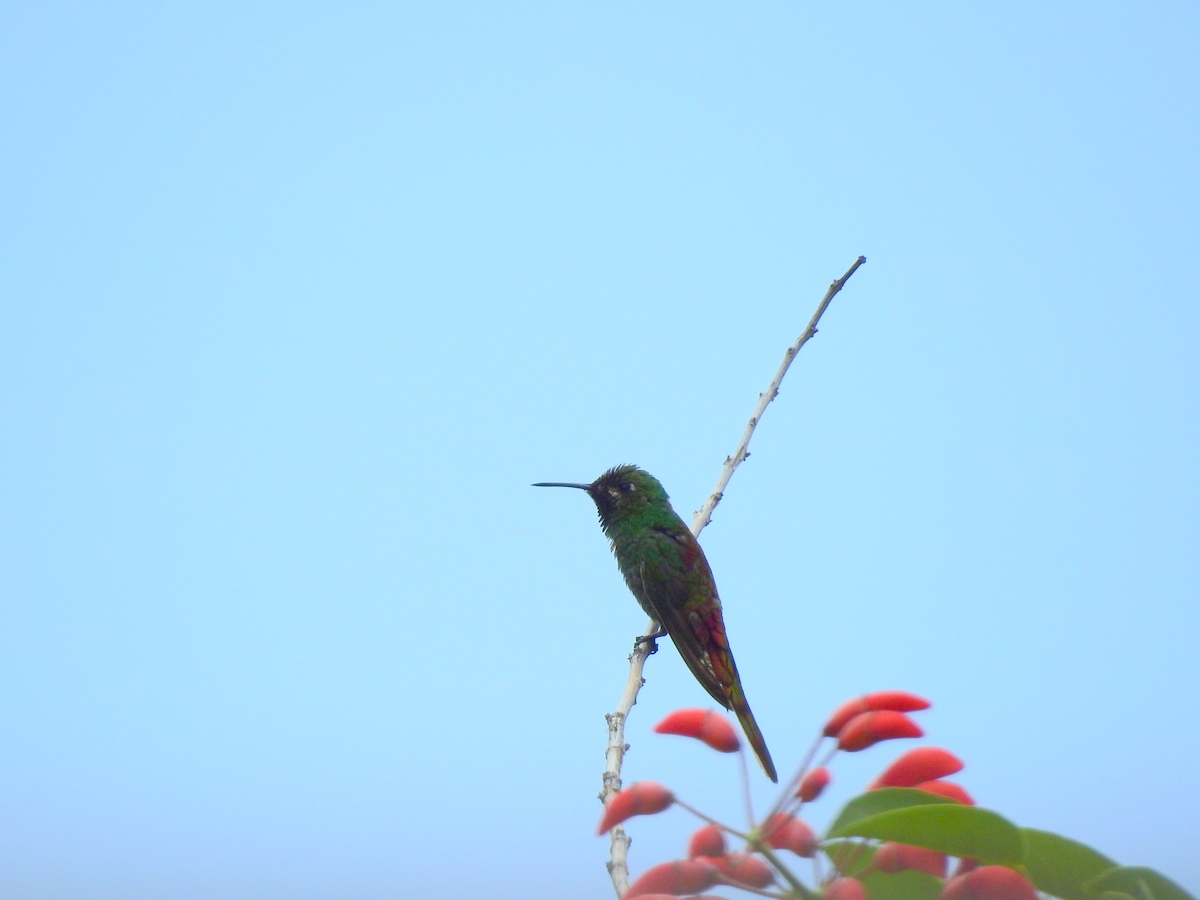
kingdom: Animalia
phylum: Chordata
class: Aves
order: Apodiformes
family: Trochilidae
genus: Sappho
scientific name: Sappho sparganurus
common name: Red-tailed comet
